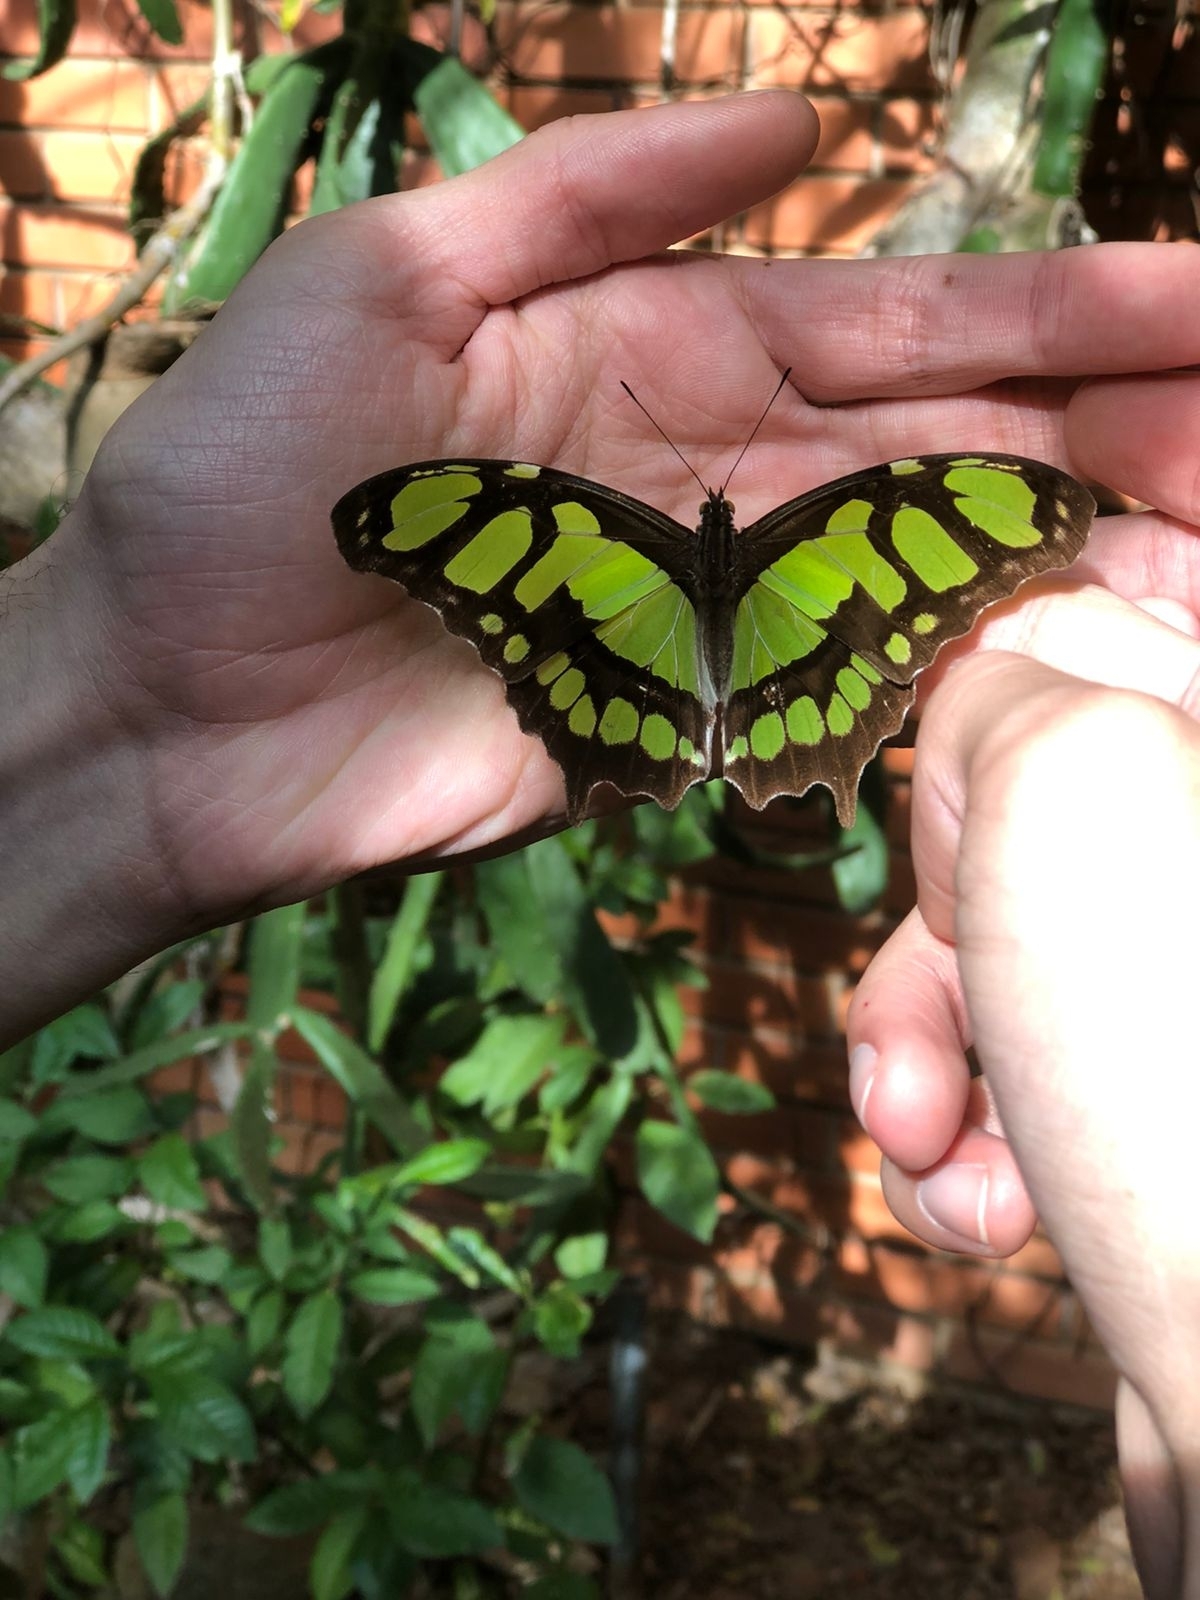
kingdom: Animalia
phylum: Arthropoda
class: Insecta
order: Lepidoptera
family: Nymphalidae
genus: Siproeta
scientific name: Siproeta stelenes
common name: Malachite
